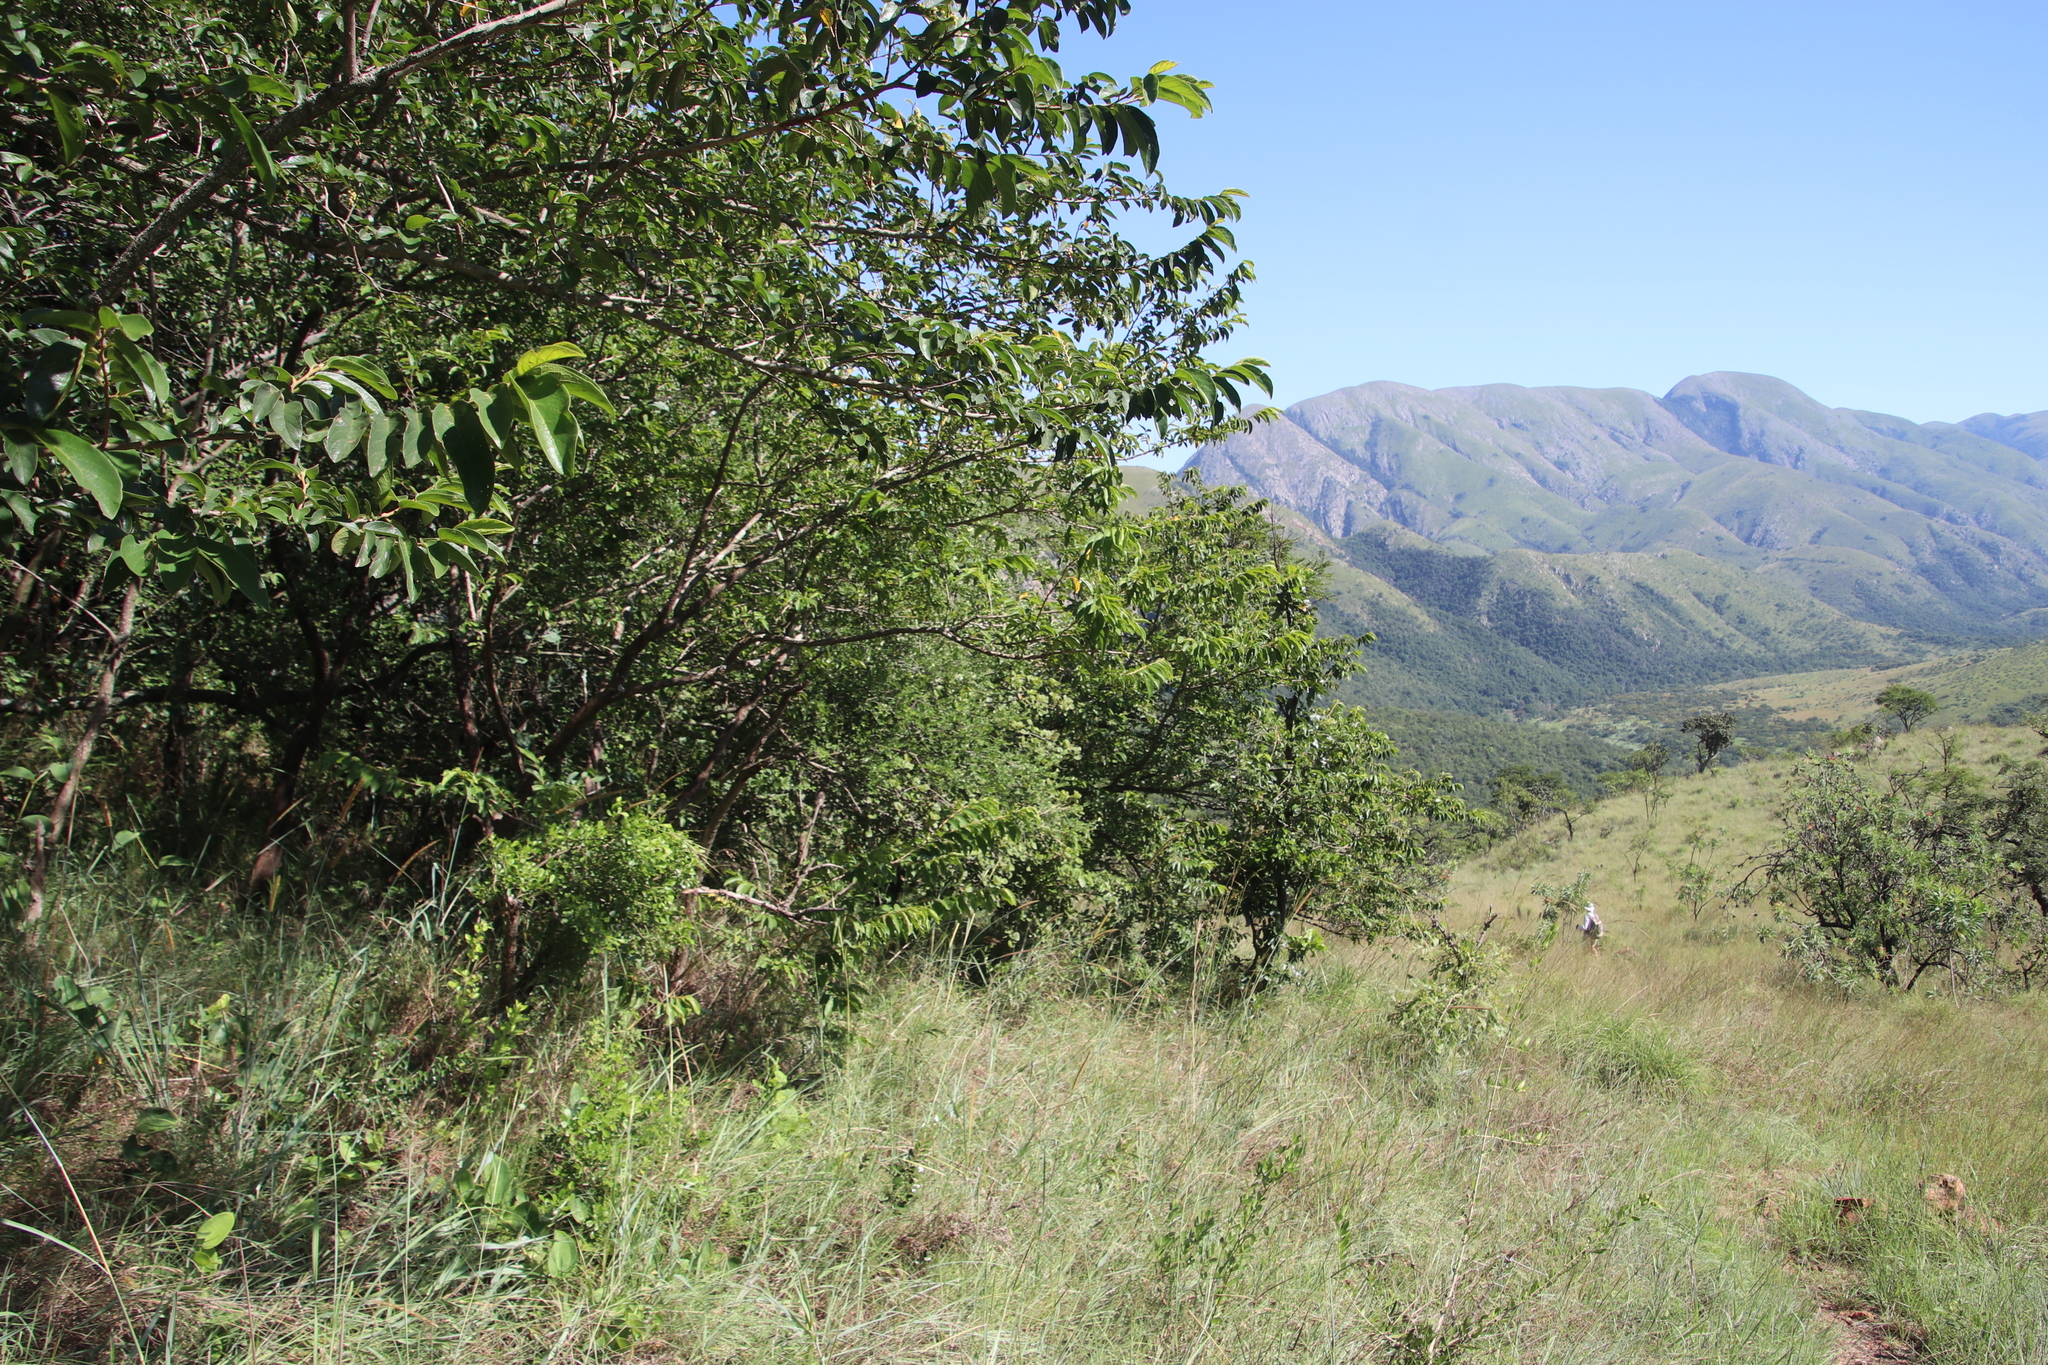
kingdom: Plantae
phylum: Tracheophyta
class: Magnoliopsida
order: Malpighiales
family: Phyllanthaceae
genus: Antidesma
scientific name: Antidesma venosum
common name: Tassel-berry
